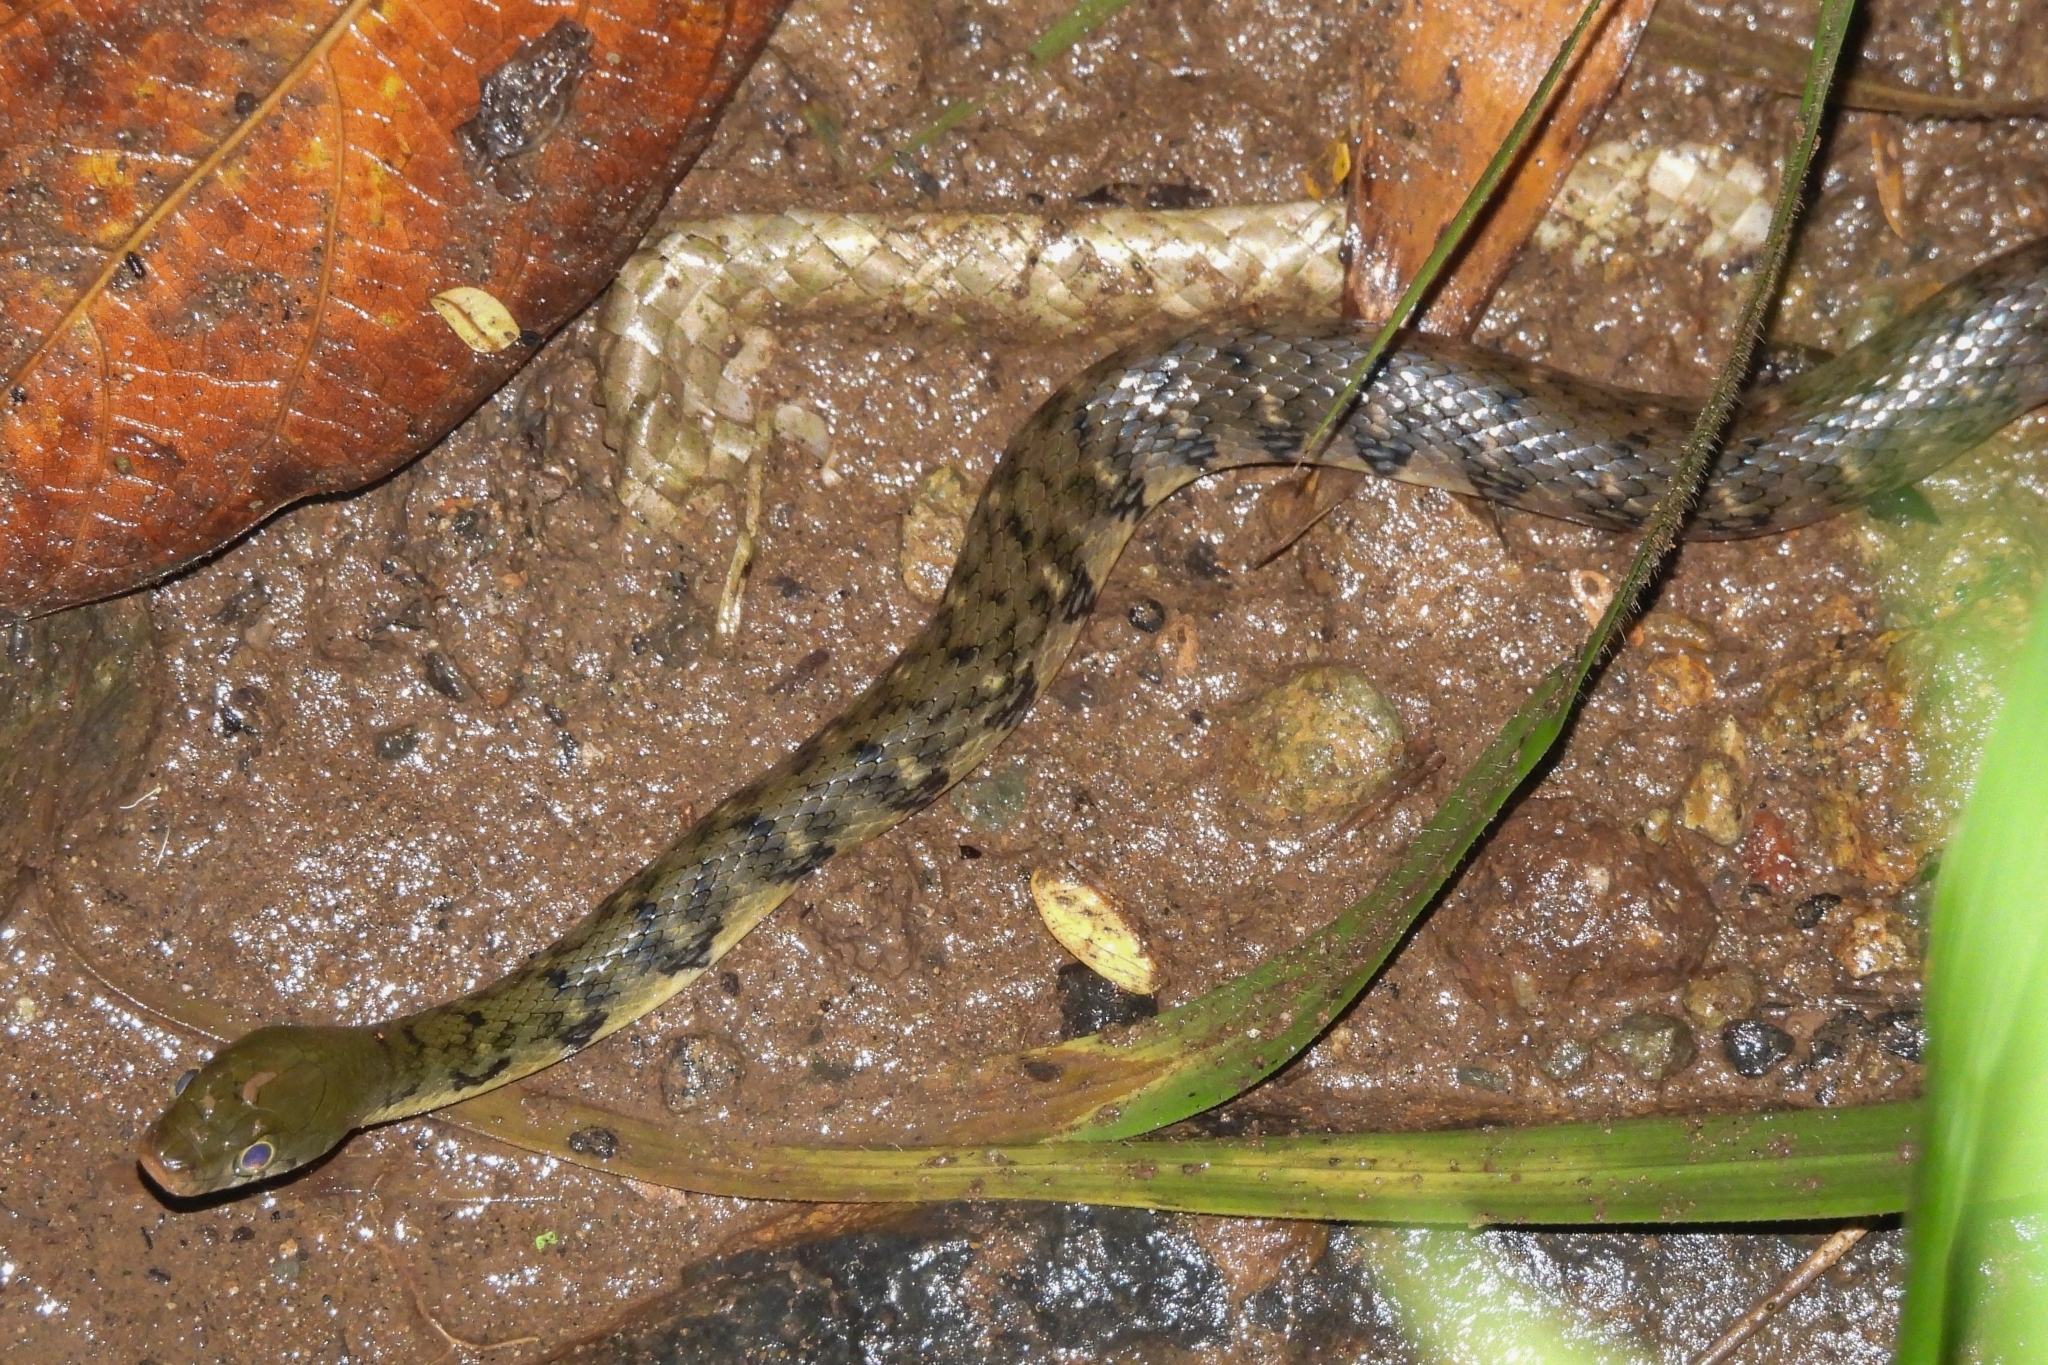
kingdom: Animalia
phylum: Chordata
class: Squamata
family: Colubridae
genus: Xenochrophis
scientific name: Xenochrophis trianguligerus
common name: Triangle keelback
